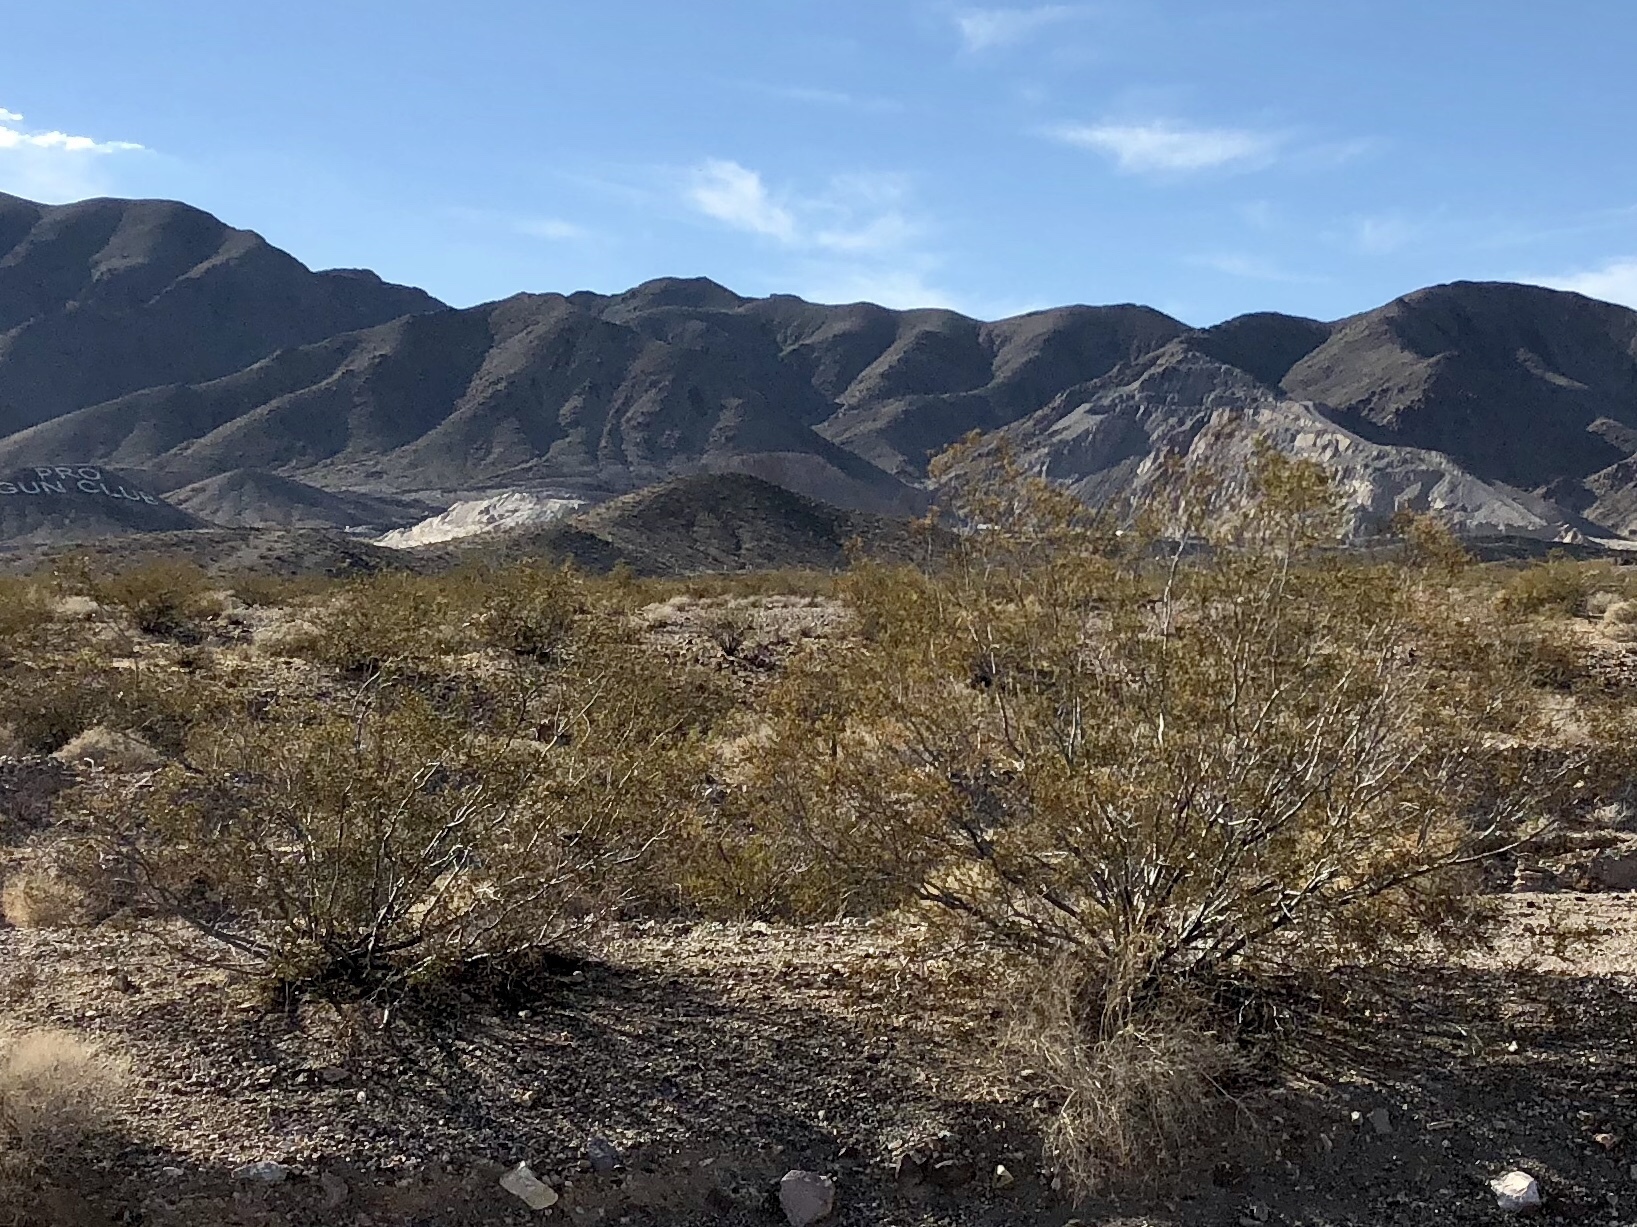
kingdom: Plantae
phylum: Tracheophyta
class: Magnoliopsida
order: Zygophyllales
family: Zygophyllaceae
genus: Larrea
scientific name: Larrea tridentata
